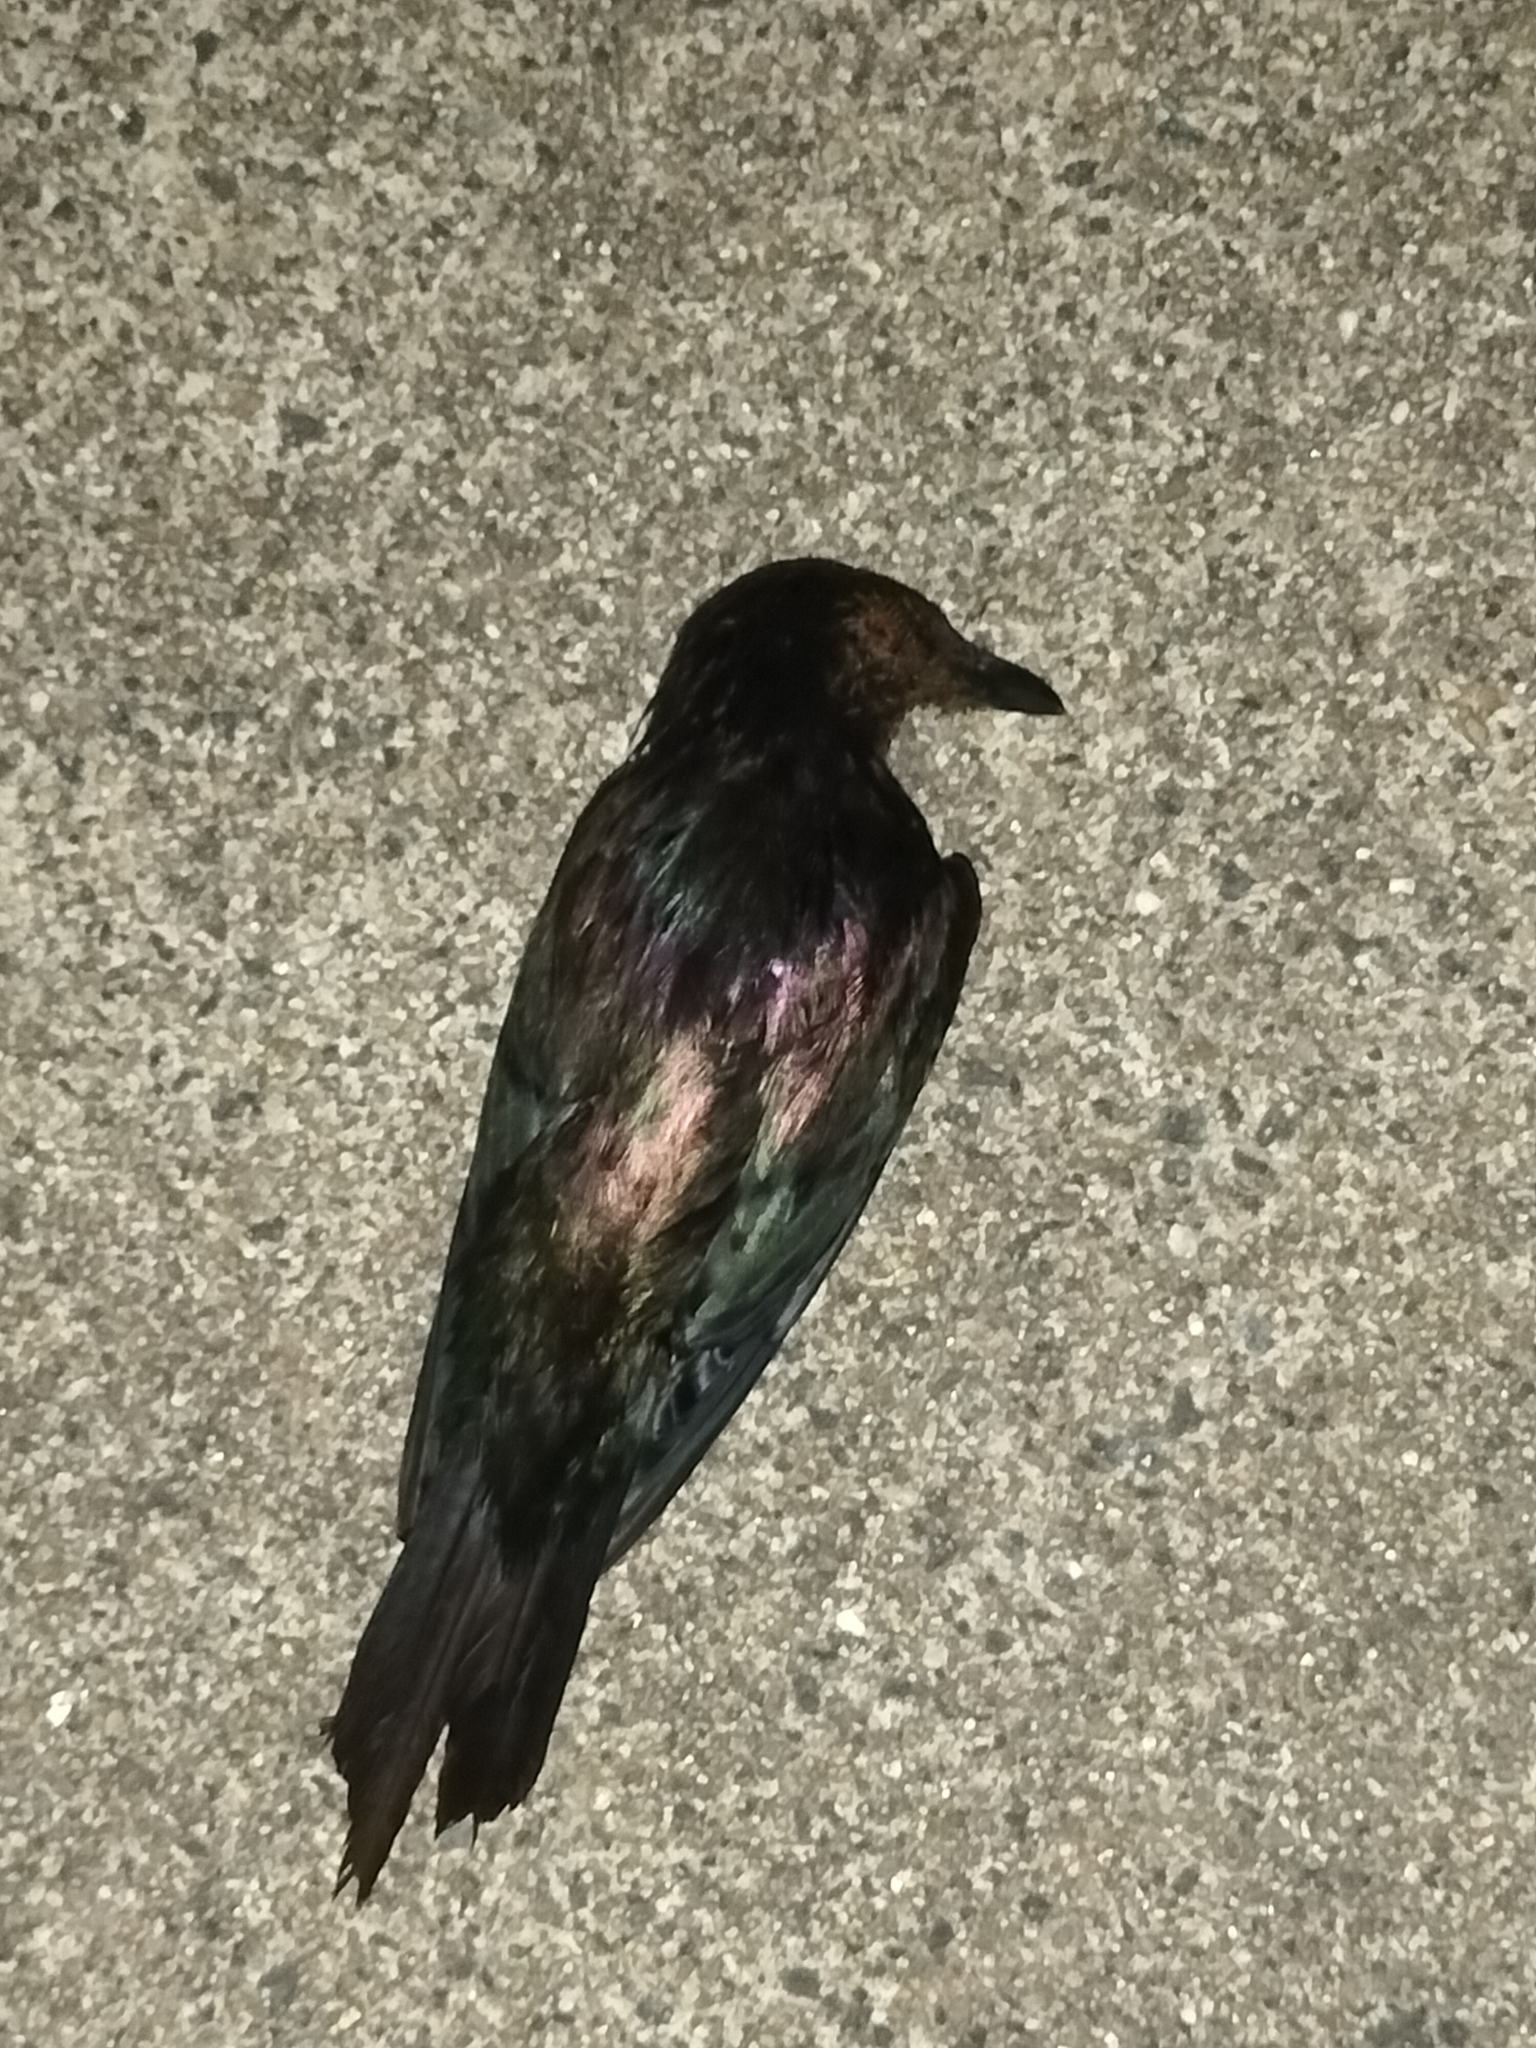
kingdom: Animalia
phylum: Chordata
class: Aves
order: Passeriformes
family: Sturnidae
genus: Aplonis
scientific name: Aplonis metallica
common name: Metallic starling
